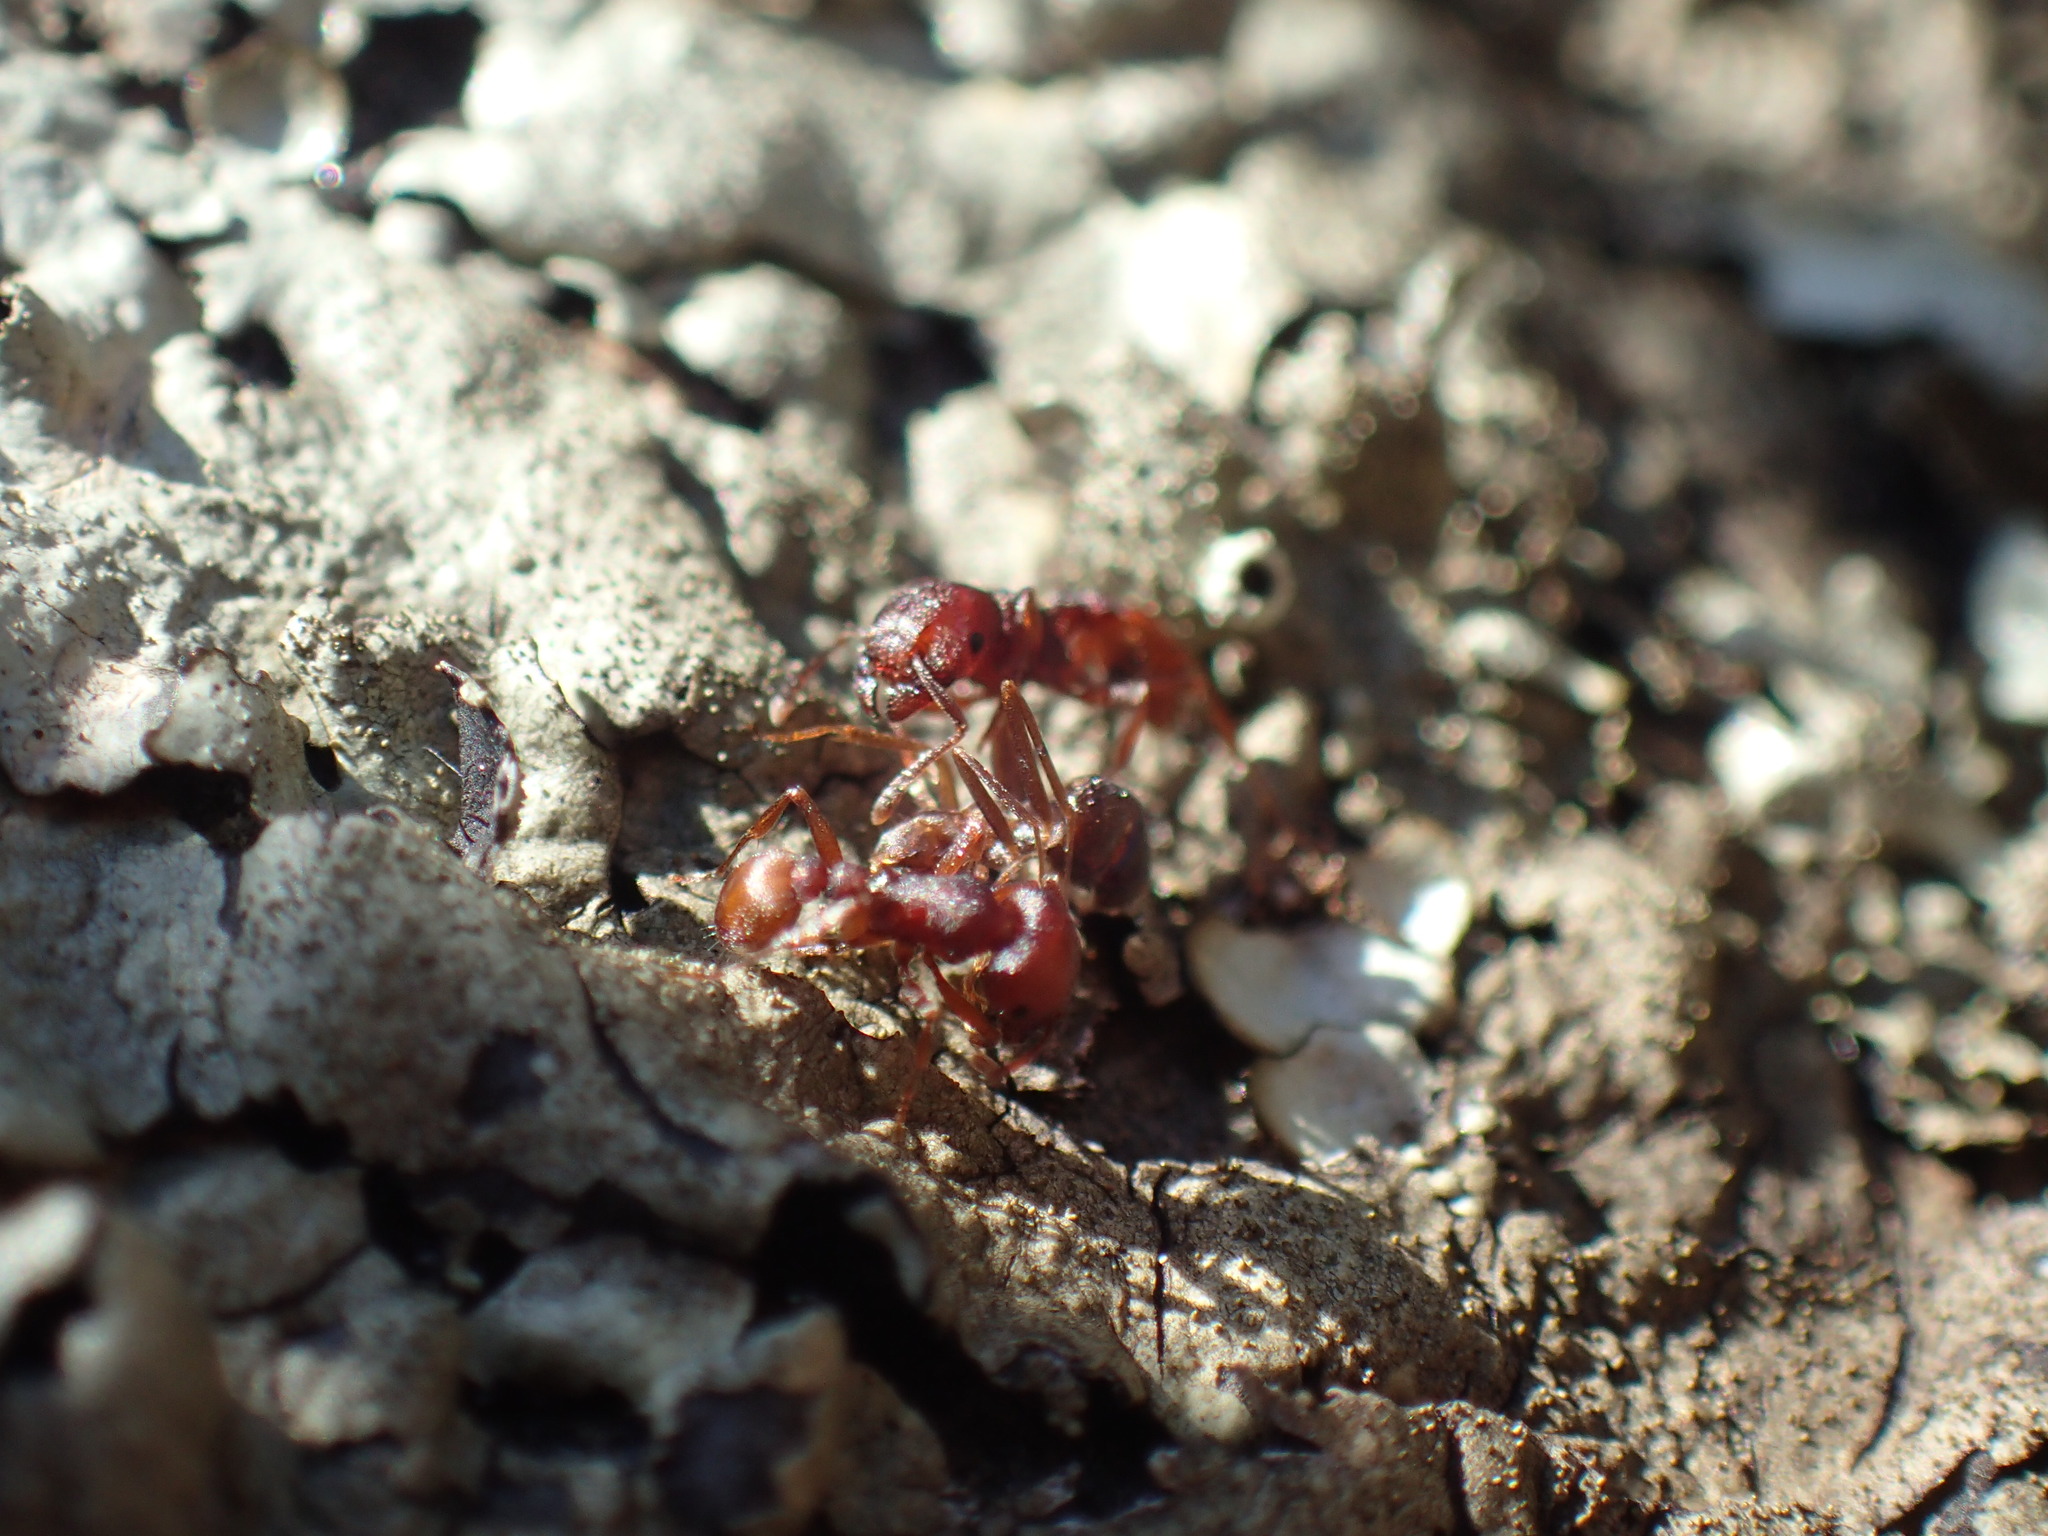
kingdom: Animalia
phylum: Arthropoda
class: Insecta
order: Hymenoptera
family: Formicidae
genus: Tetramorium
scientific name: Tetramorium sericeiventre
